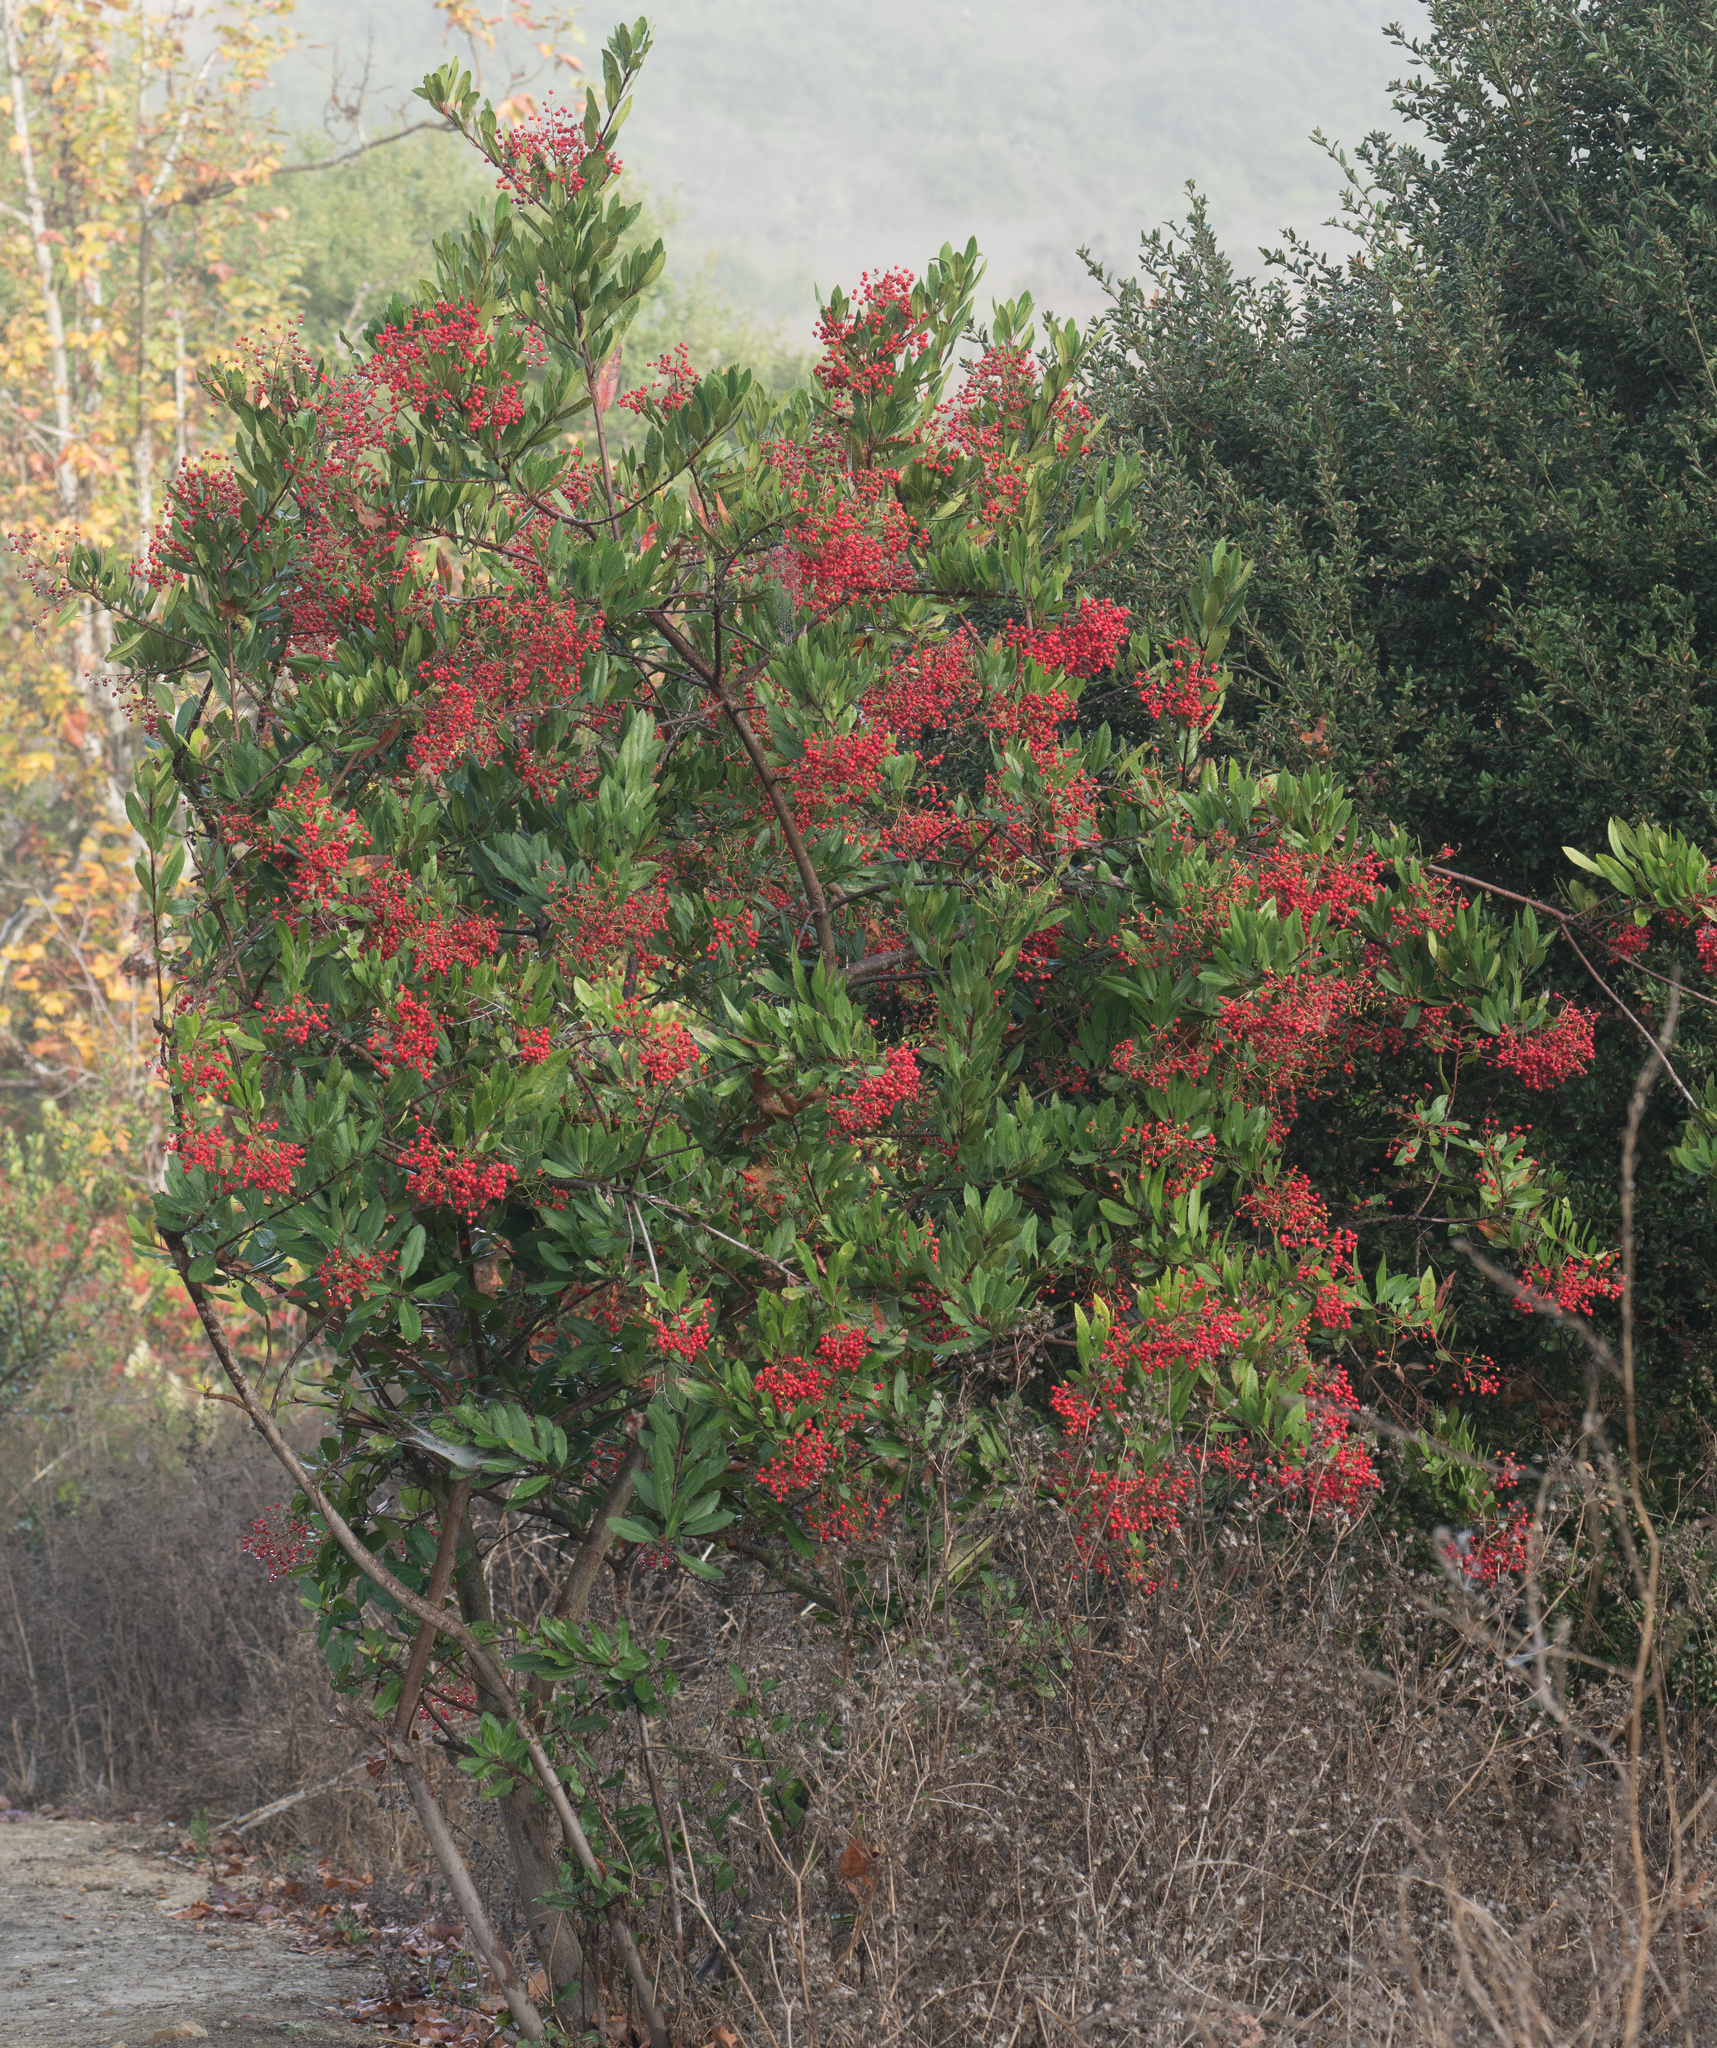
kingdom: Plantae
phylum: Tracheophyta
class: Magnoliopsida
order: Rosales
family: Rosaceae
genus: Heteromeles
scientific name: Heteromeles arbutifolia
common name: California-holly
